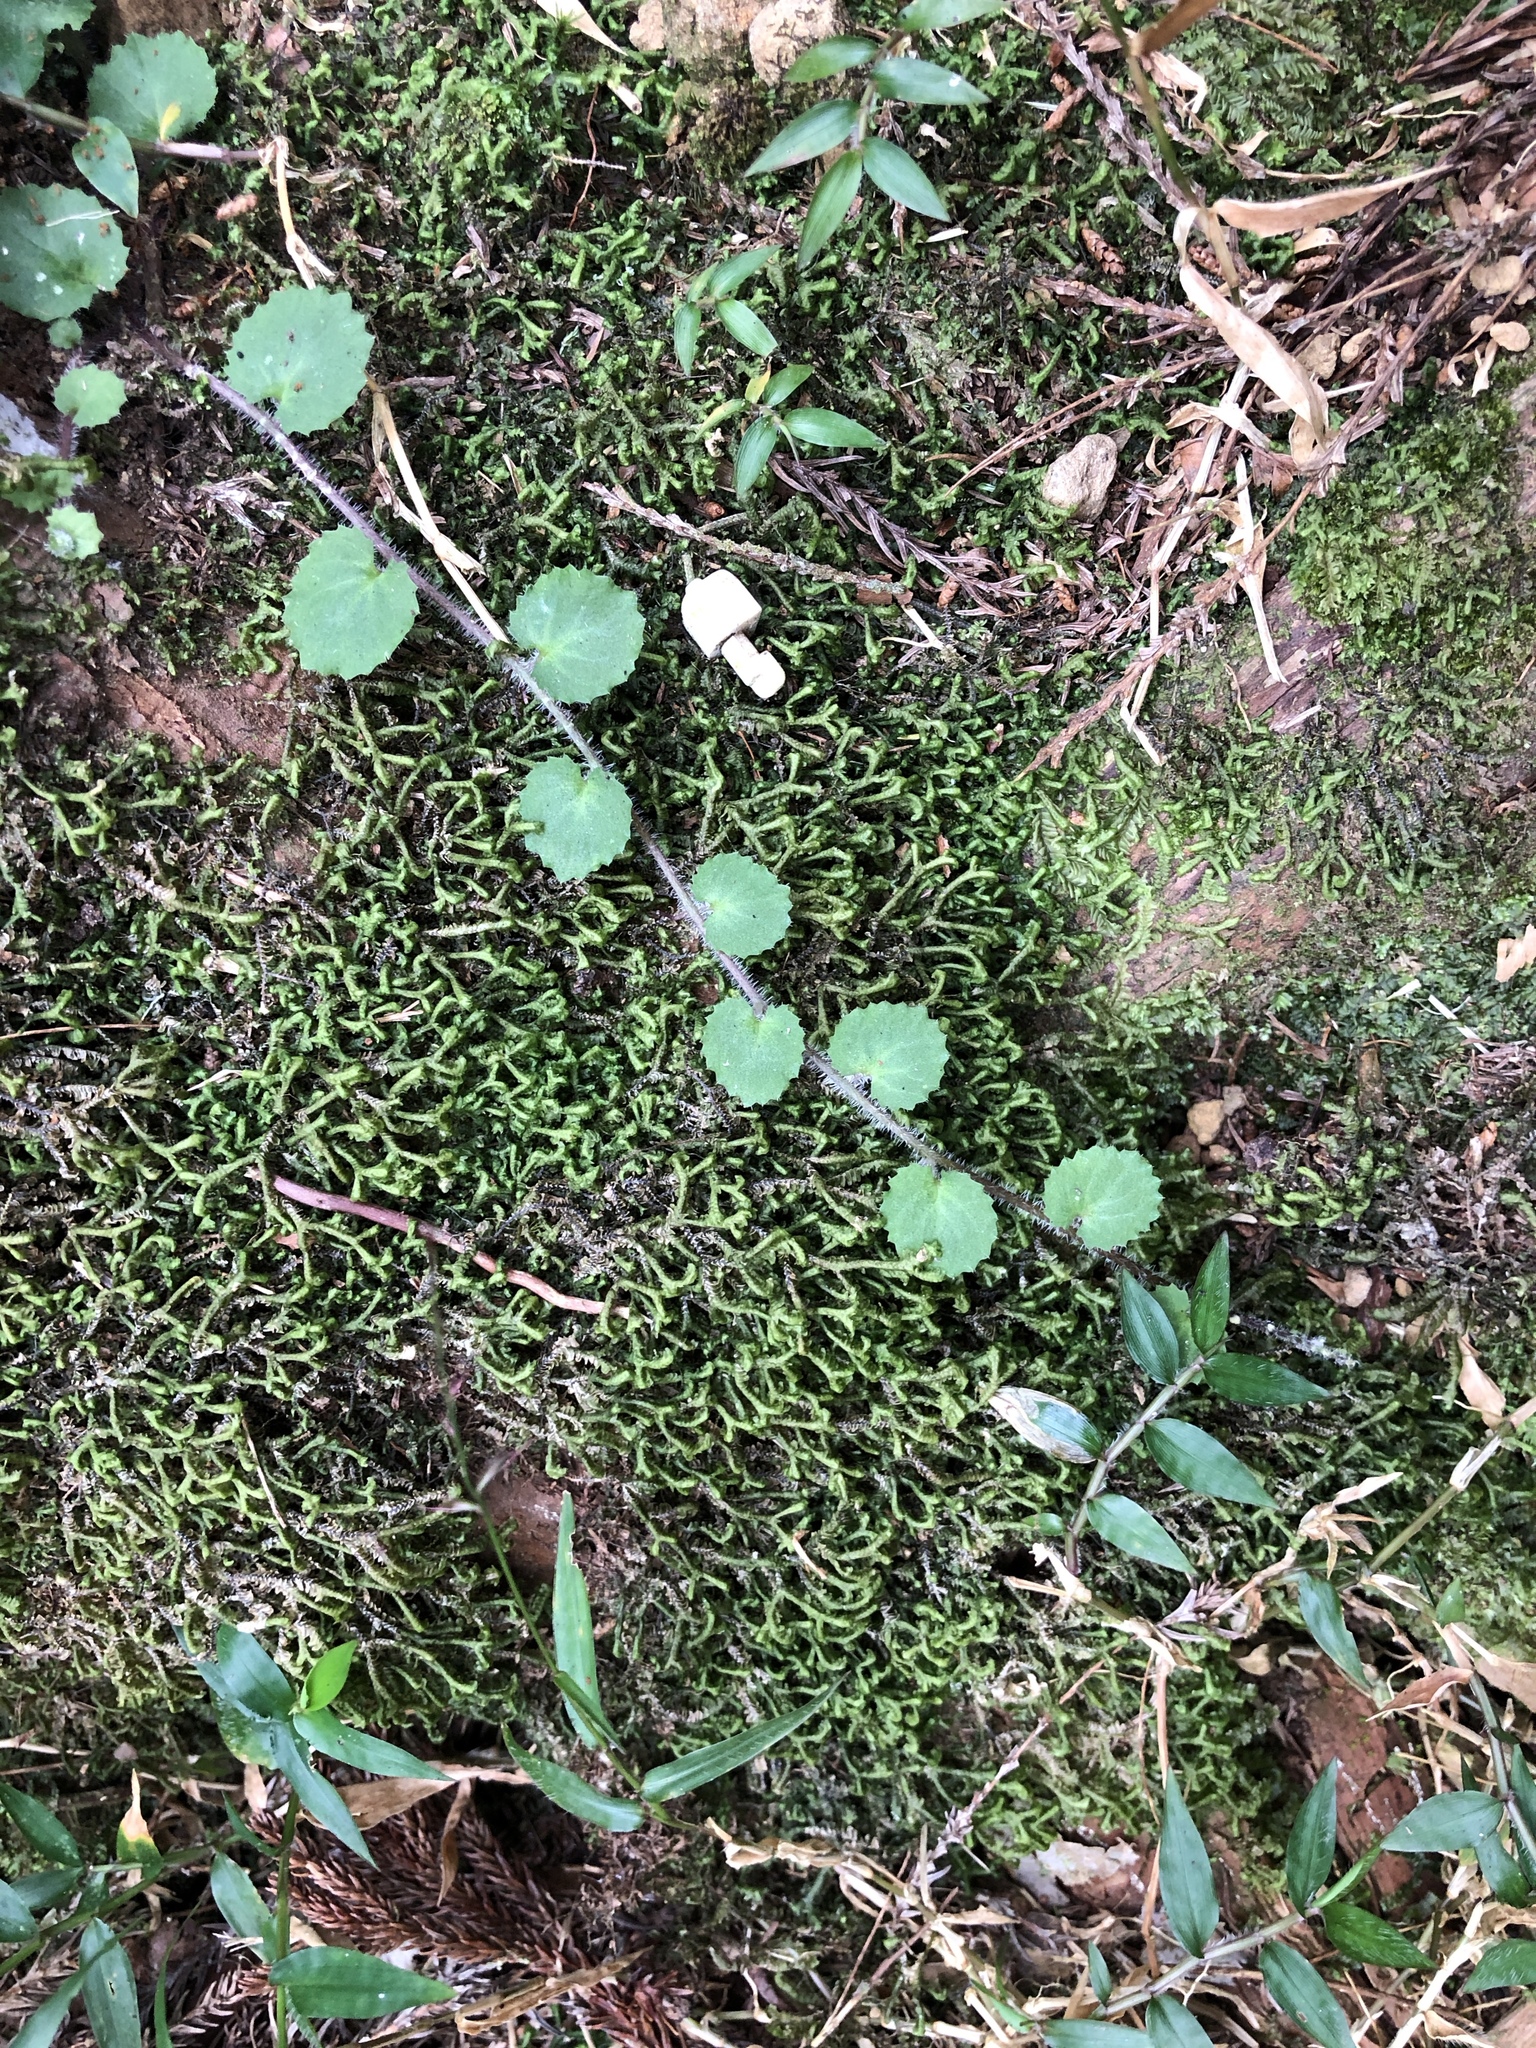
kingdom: Plantae
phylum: Tracheophyta
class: Magnoliopsida
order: Asterales
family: Campanulaceae
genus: Lobelia
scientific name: Lobelia nummularia
